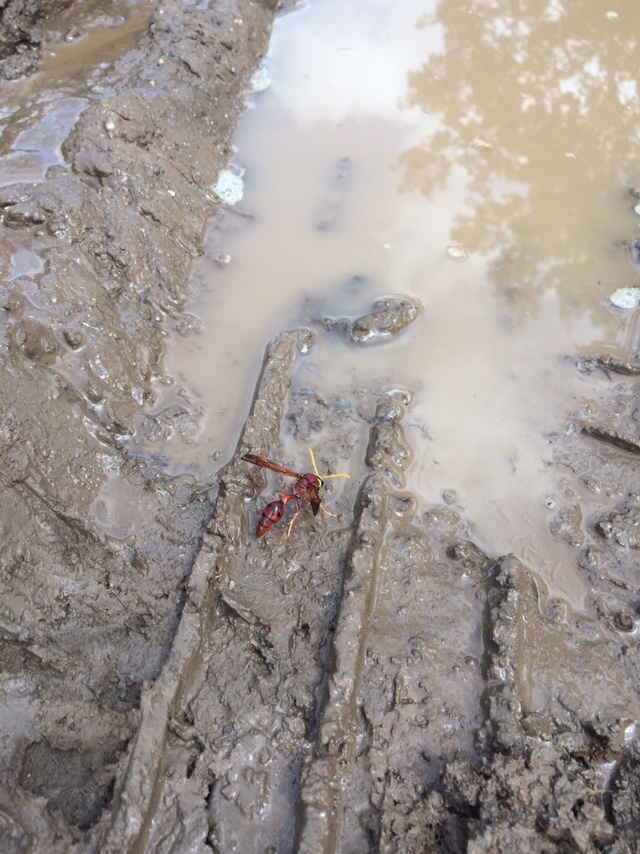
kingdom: Animalia
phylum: Arthropoda
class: Insecta
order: Hymenoptera
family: Eumenidae
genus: Delta
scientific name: Delta conoideum
